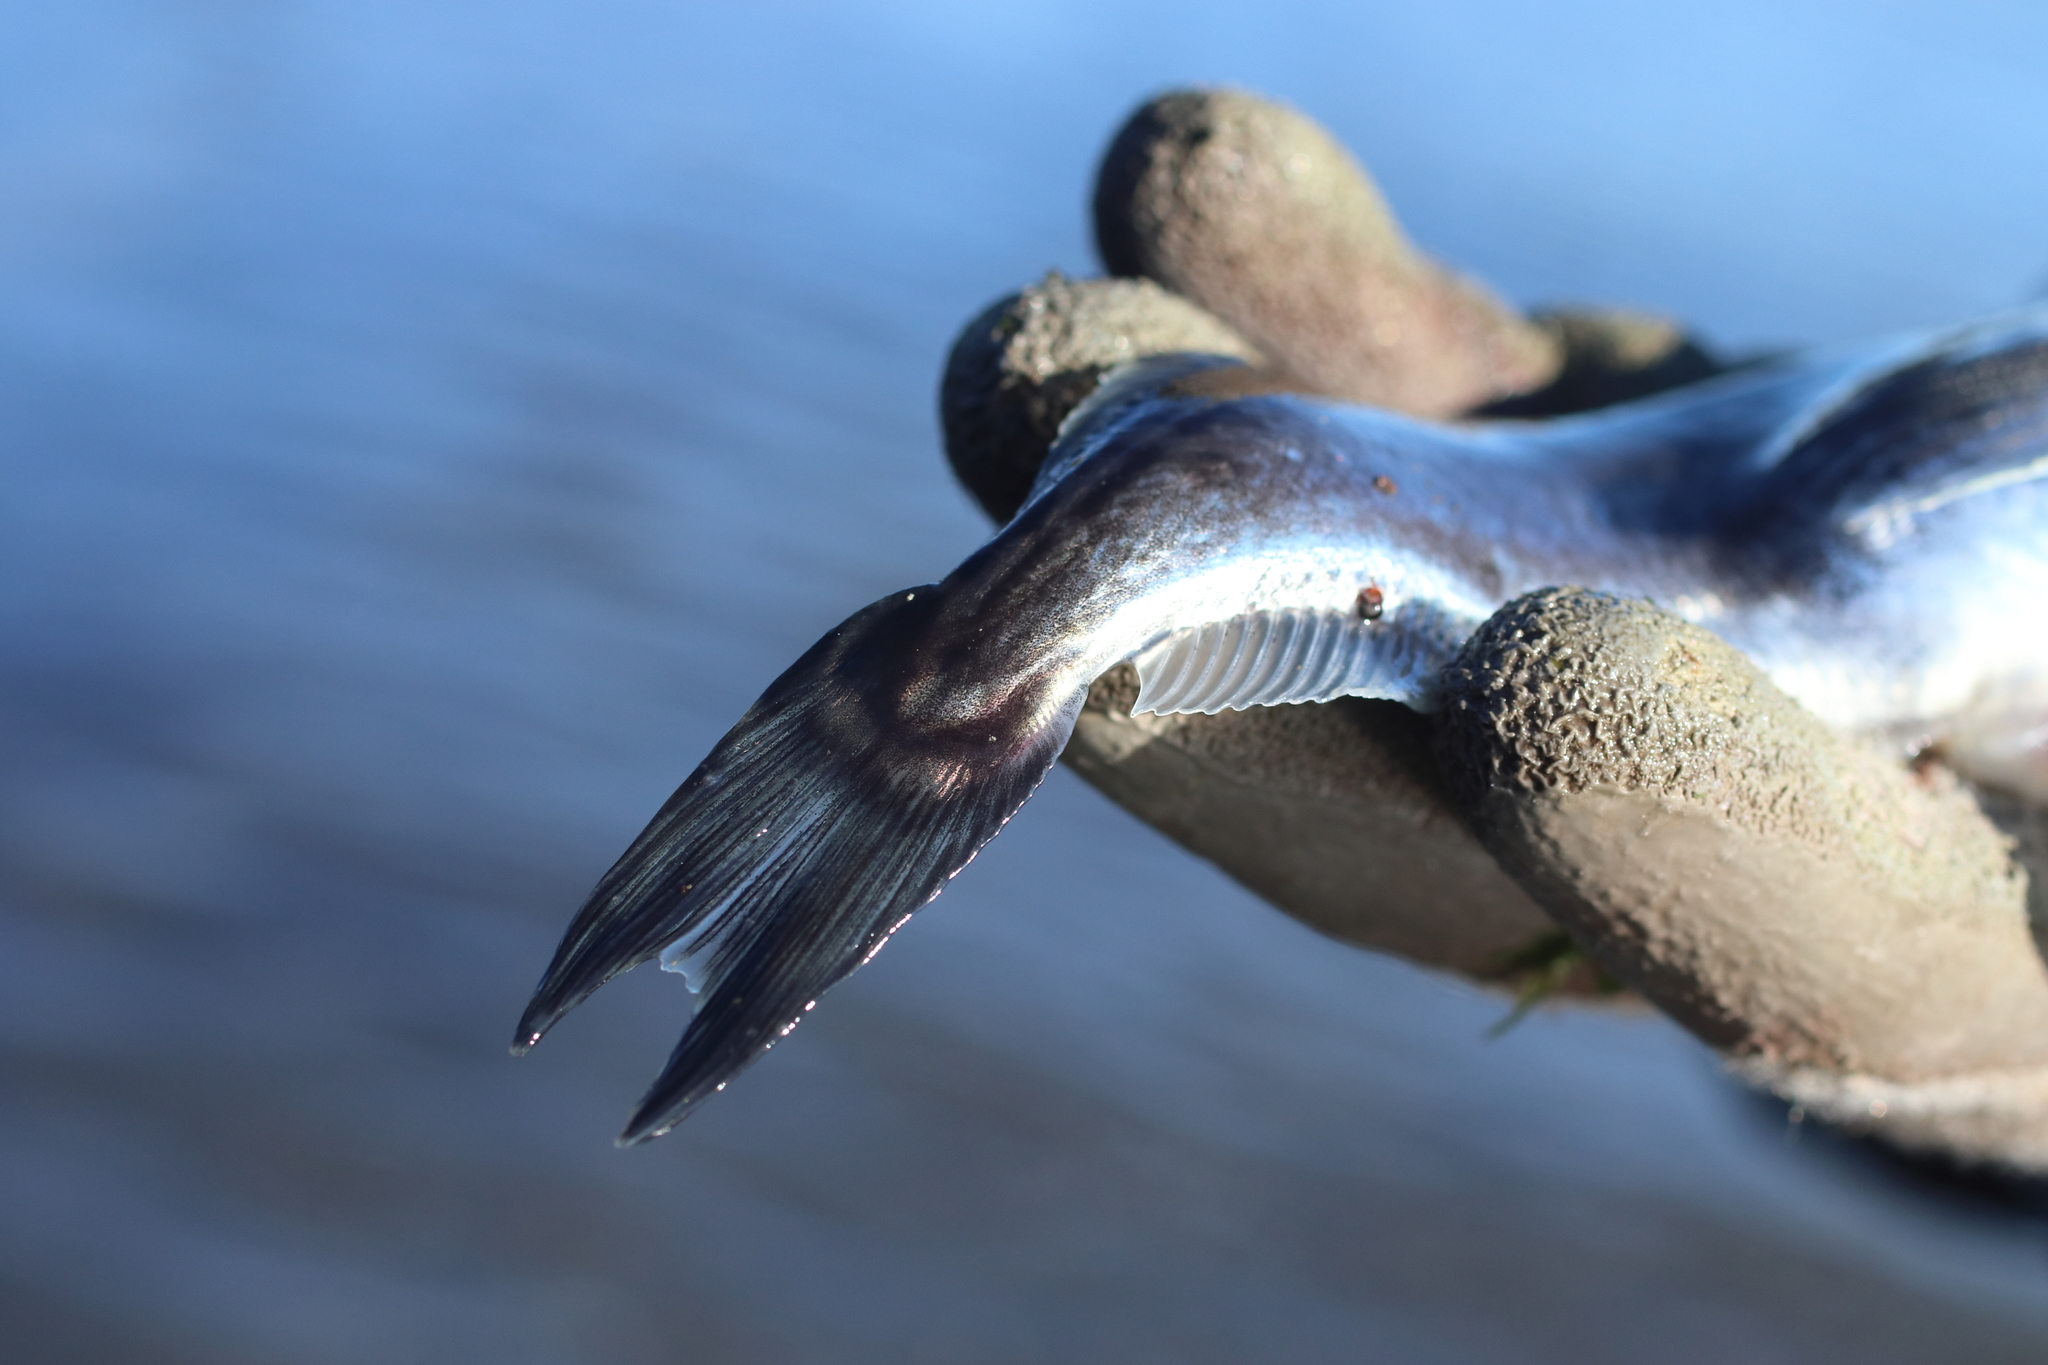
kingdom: Animalia
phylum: Chordata
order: Perciformes
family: Trichodontidae
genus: Trichodon
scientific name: Trichodon trichodon
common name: Pacific sandfish
